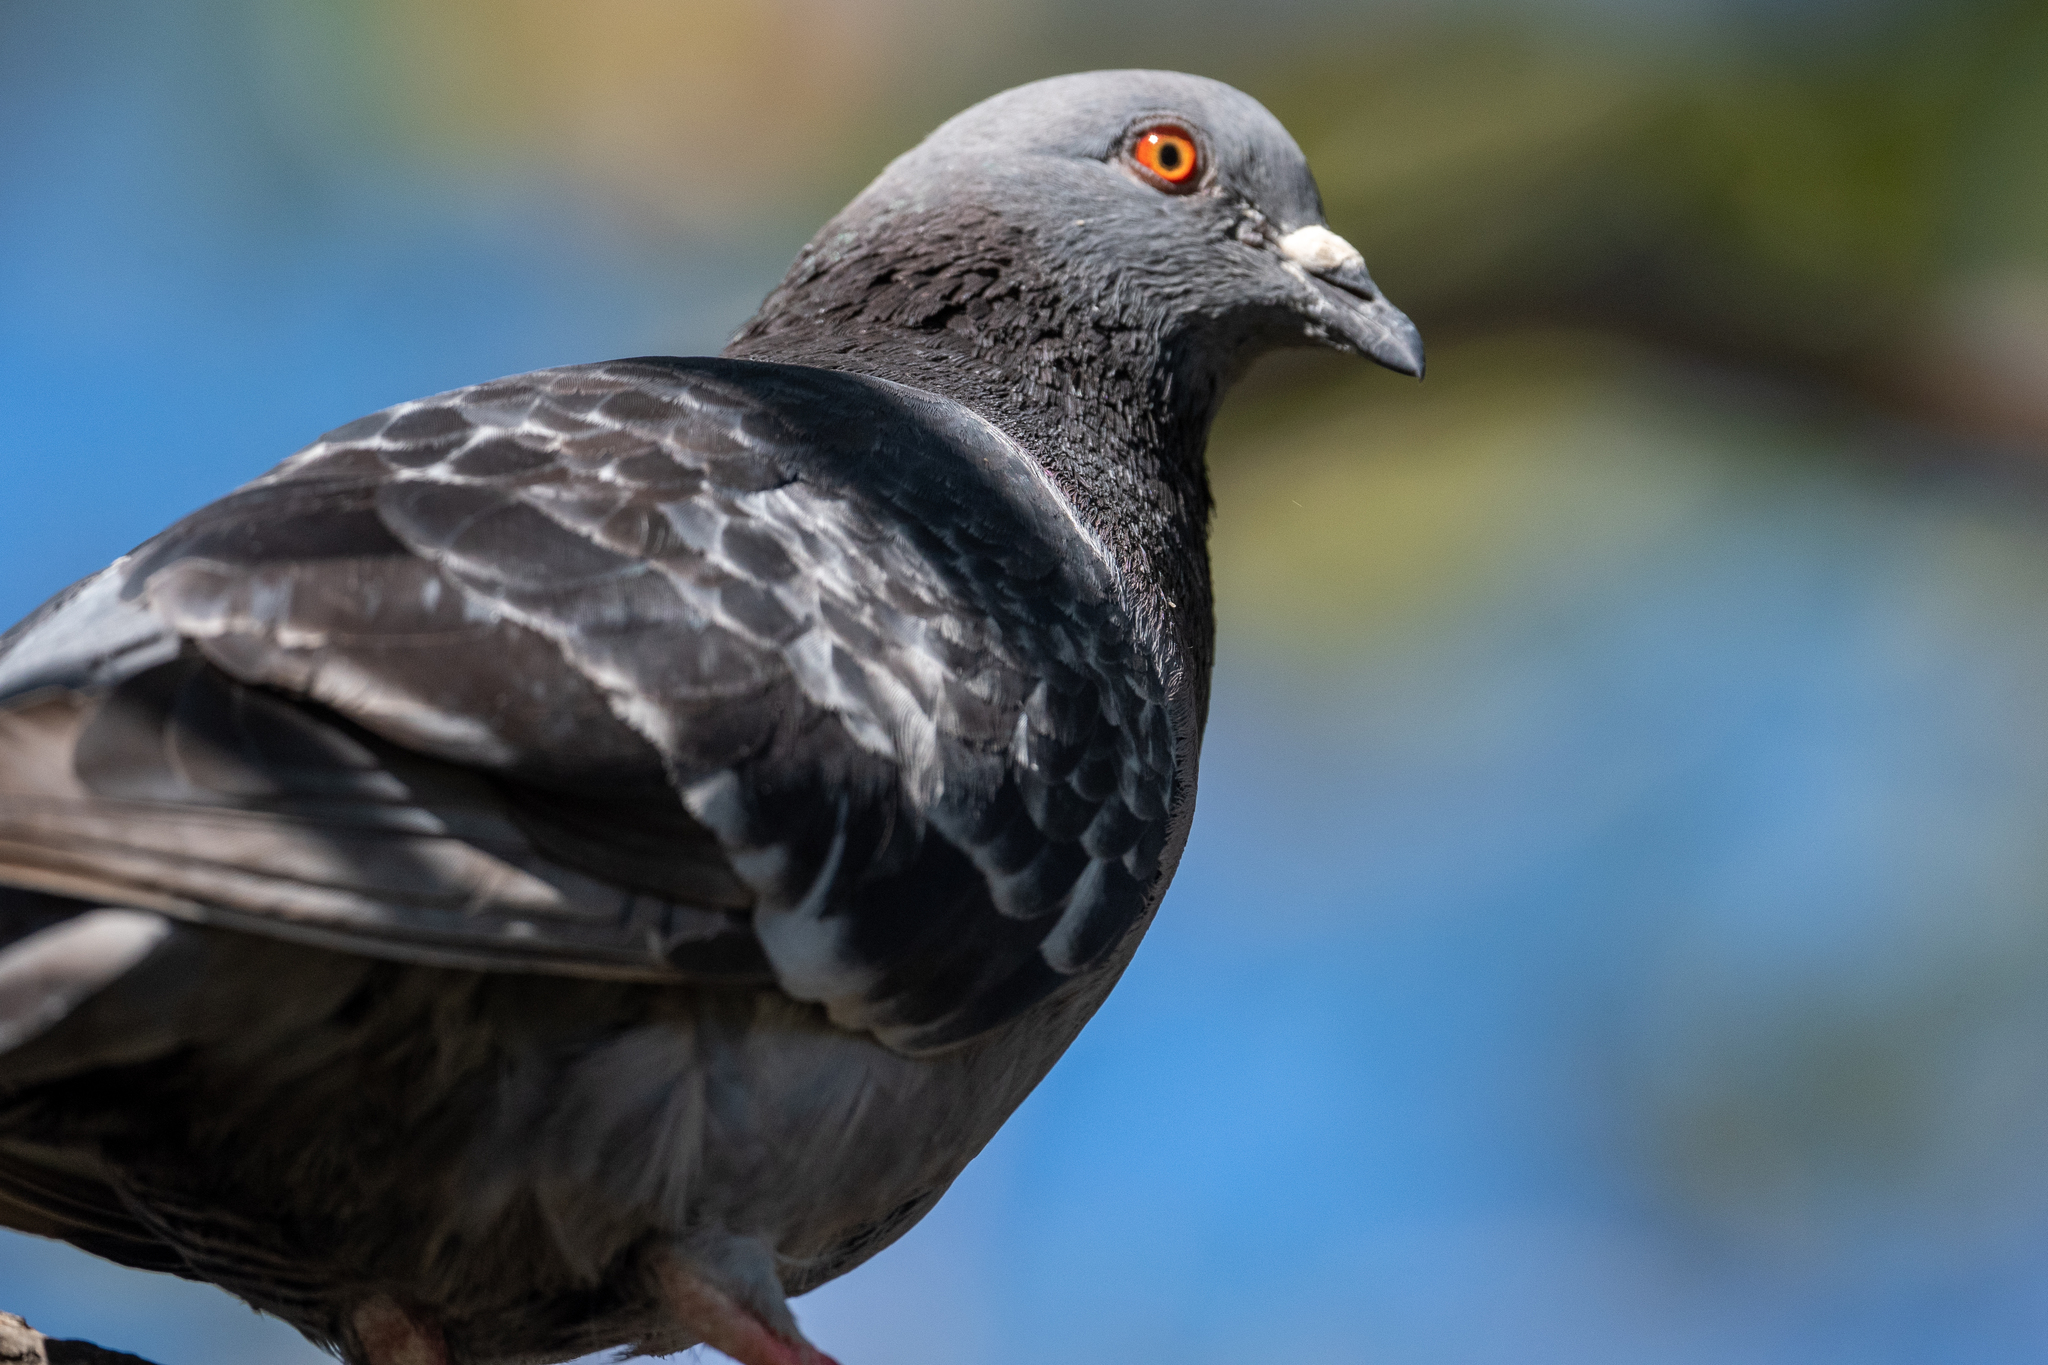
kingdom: Animalia
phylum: Chordata
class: Aves
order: Columbiformes
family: Columbidae
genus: Columba
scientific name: Columba livia
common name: Rock pigeon
